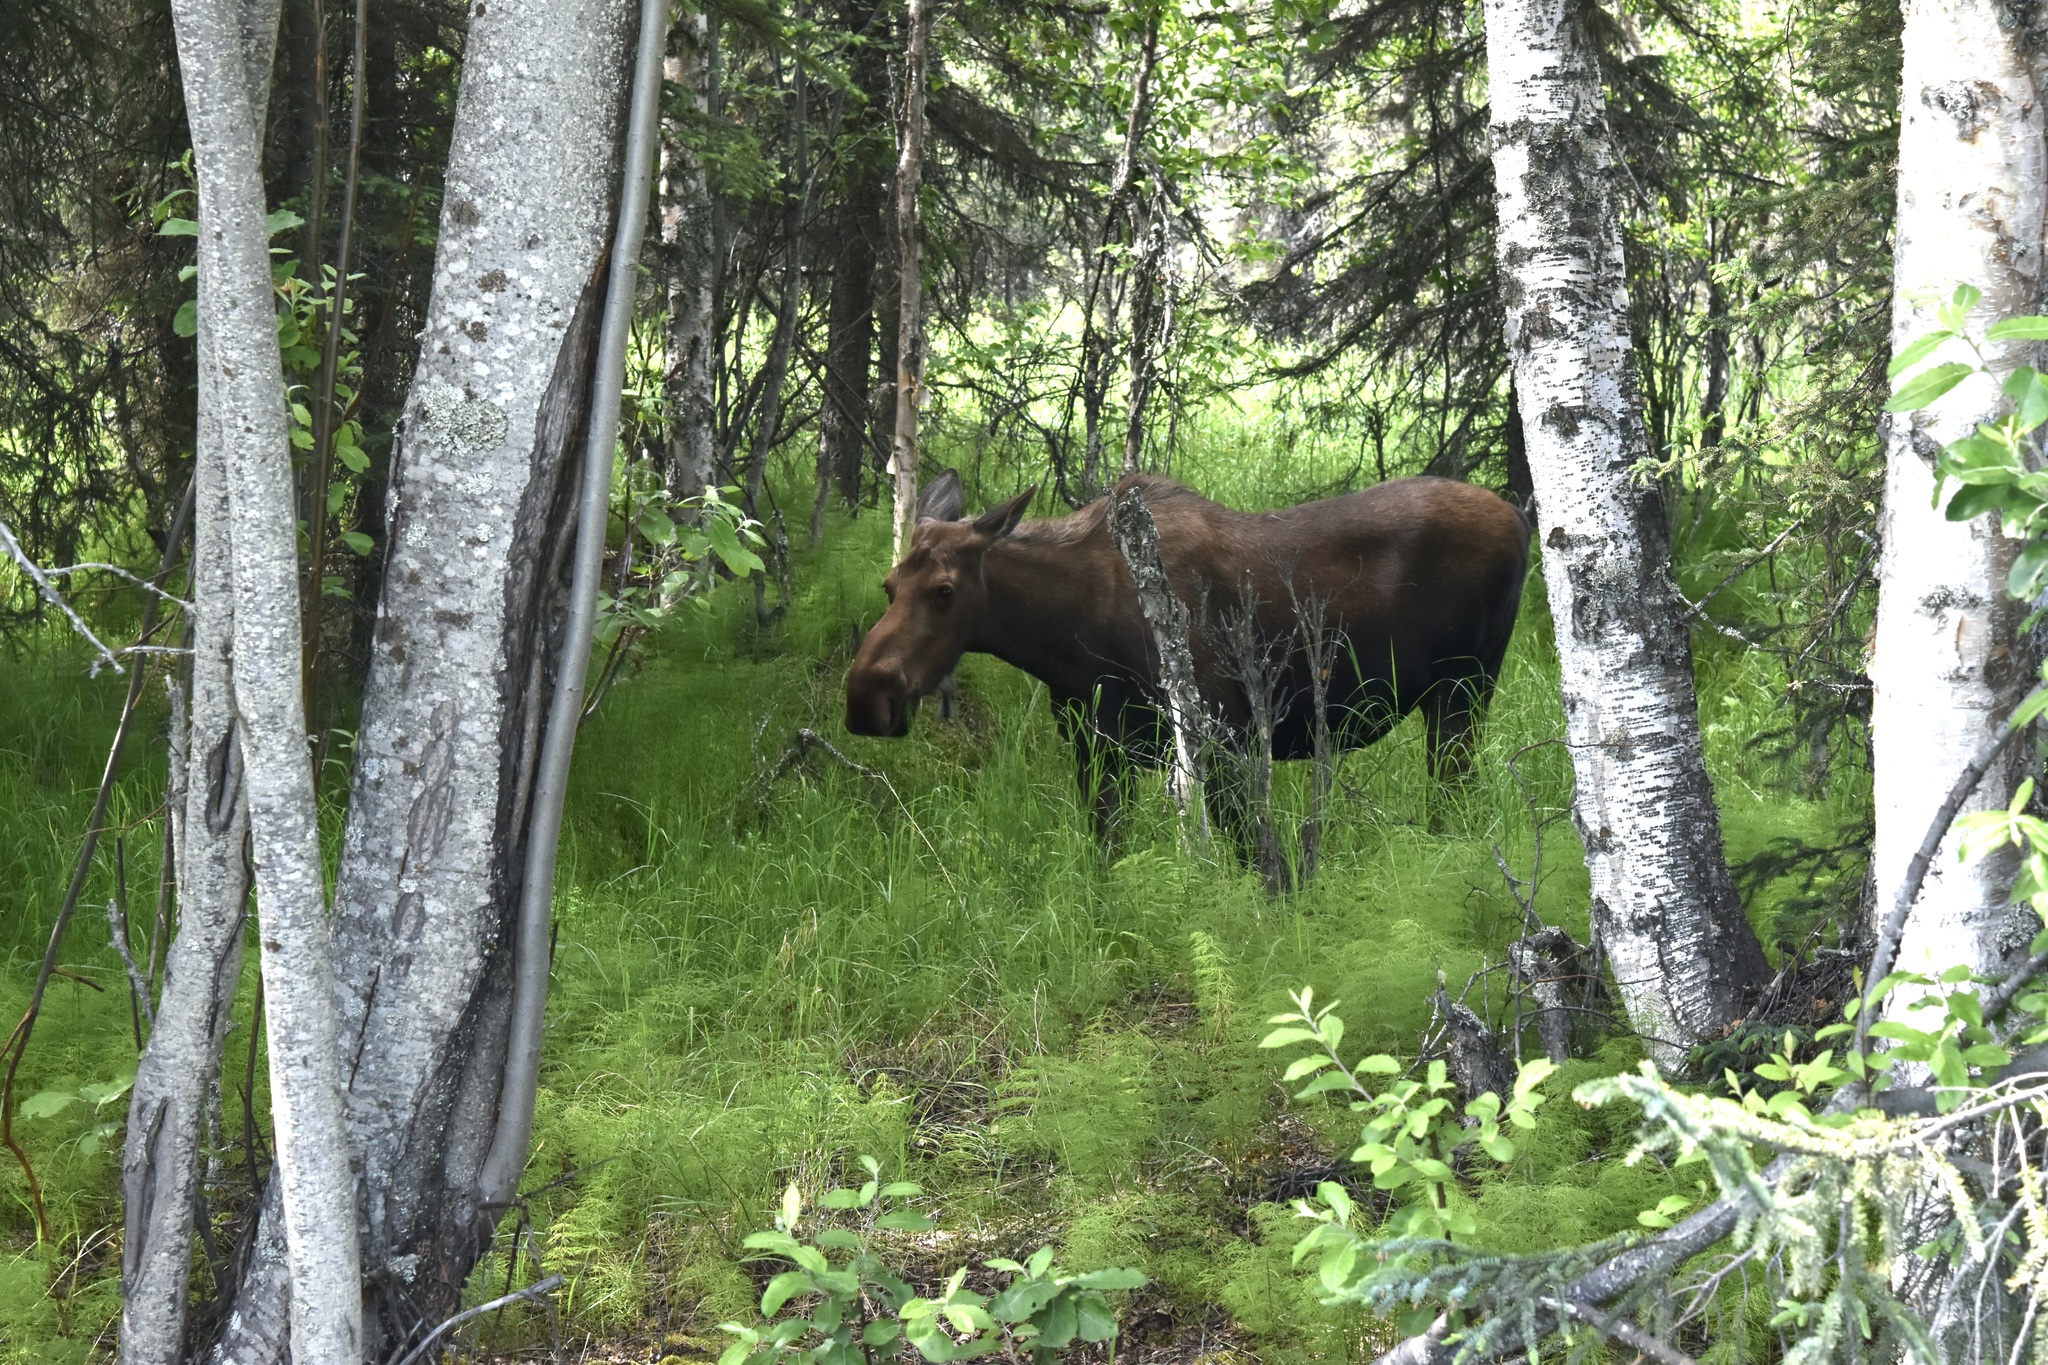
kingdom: Animalia
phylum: Chordata
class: Mammalia
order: Artiodactyla
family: Cervidae
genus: Alces
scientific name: Alces alces
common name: Moose
